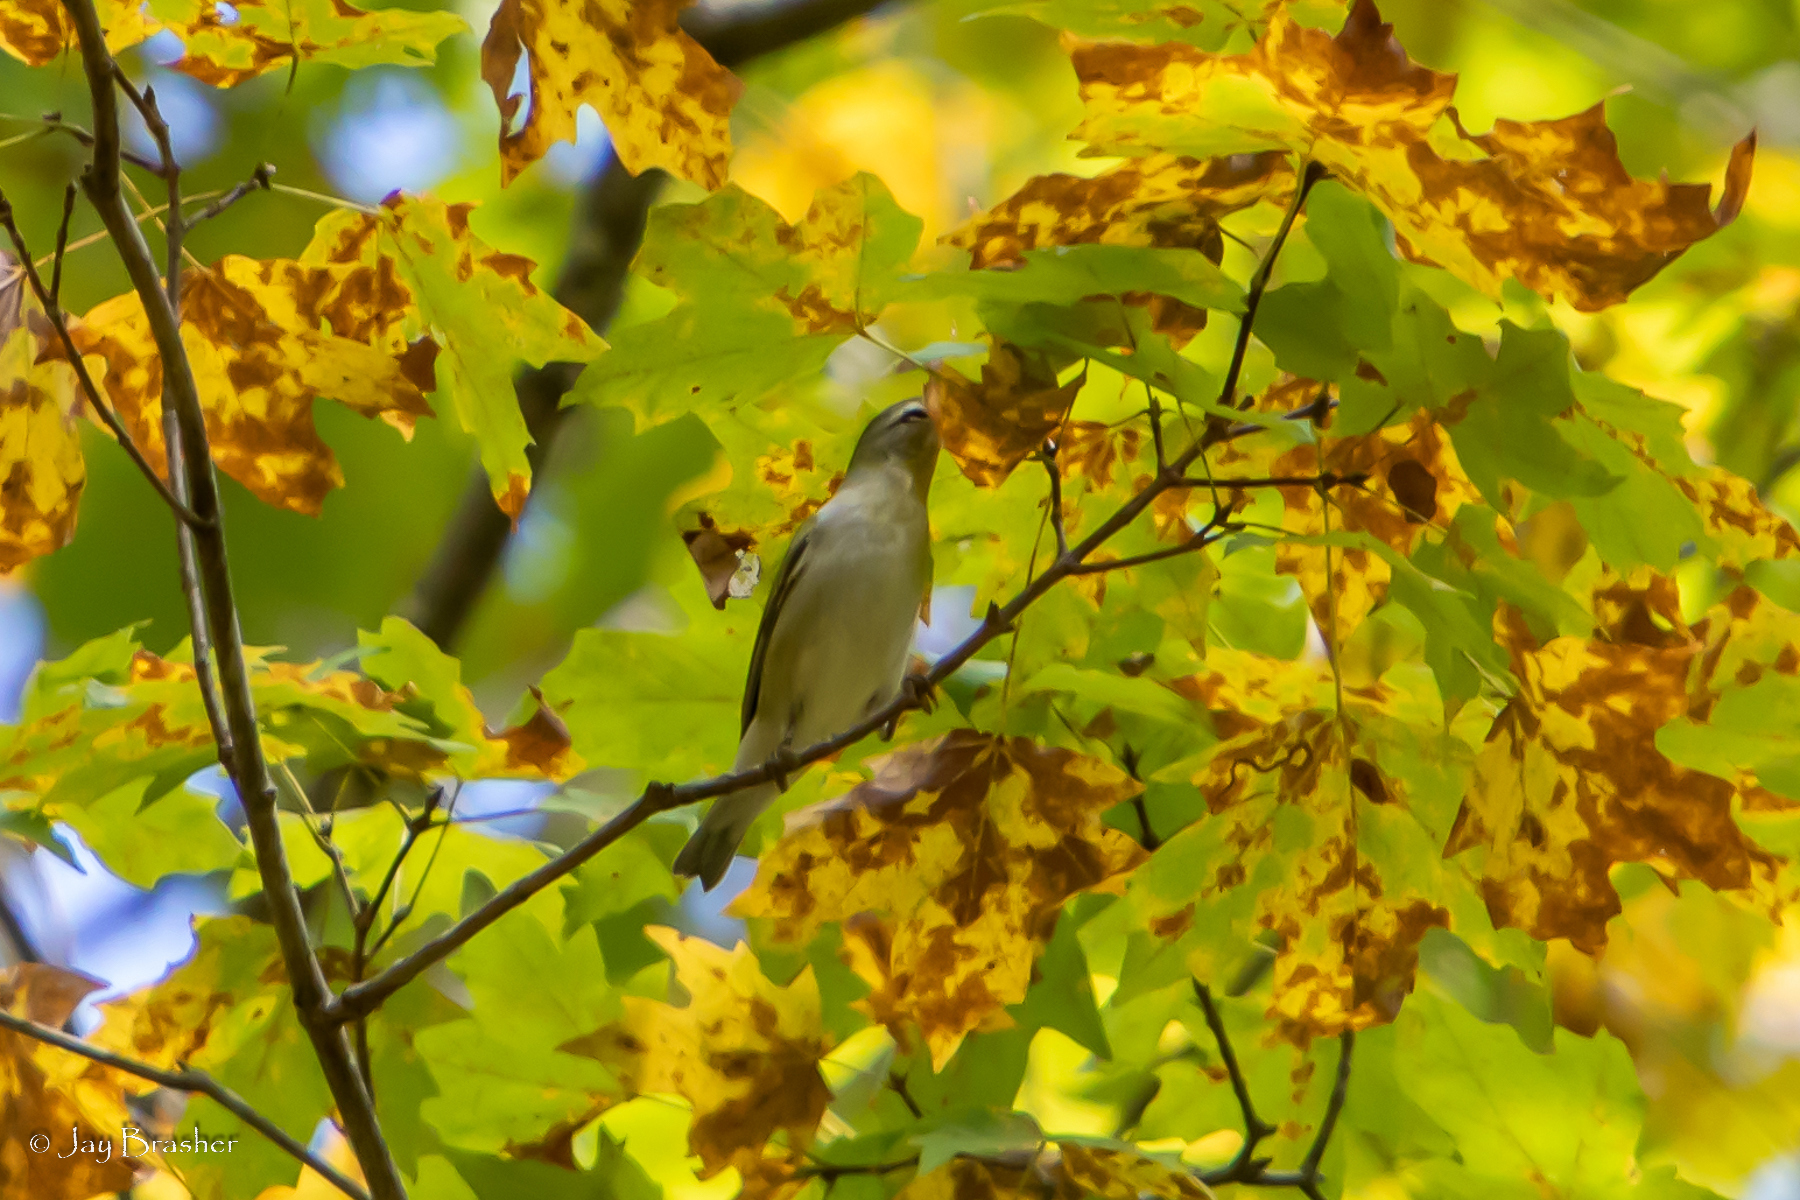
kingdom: Animalia
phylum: Chordata
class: Aves
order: Passeriformes
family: Parulidae
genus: Leiothlypis
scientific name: Leiothlypis peregrina
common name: Tennessee warbler
